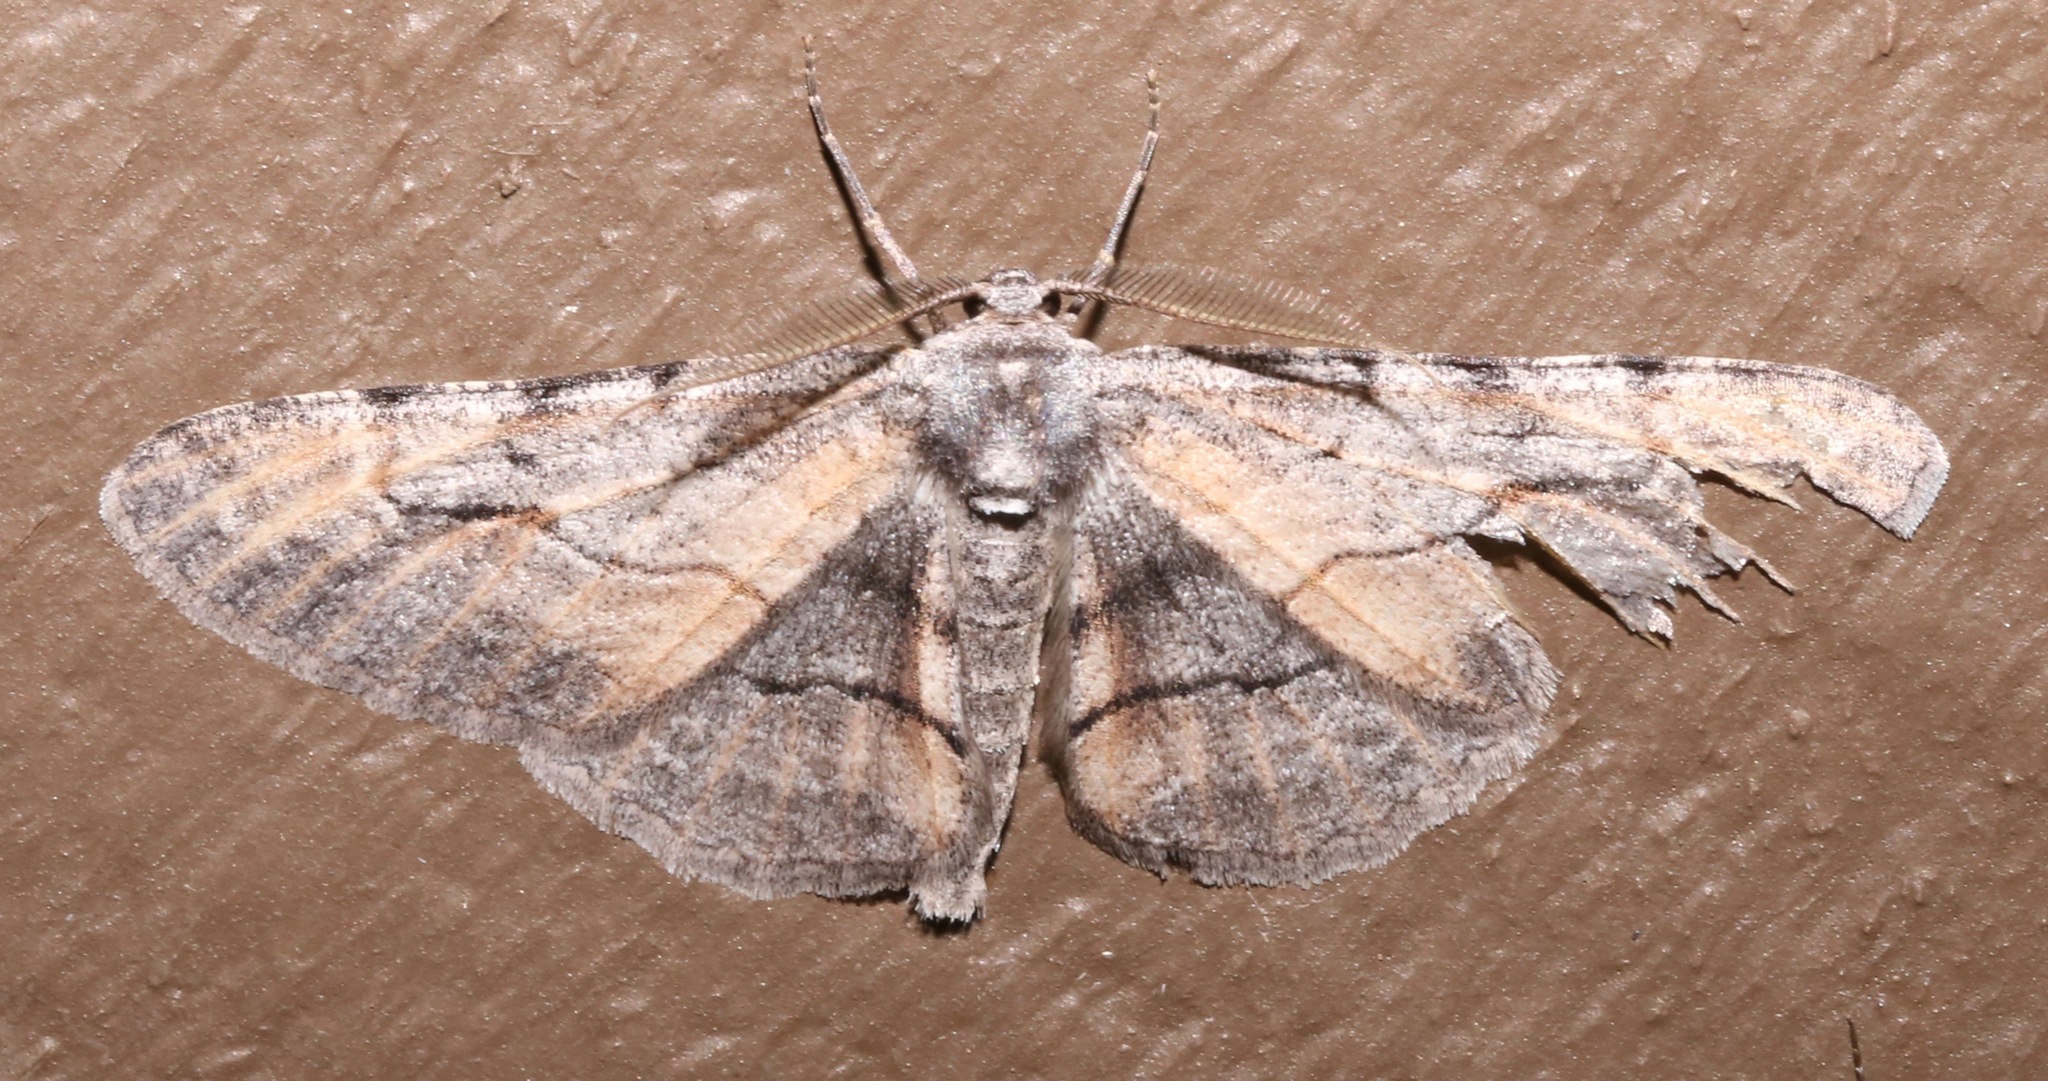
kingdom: Animalia
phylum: Arthropoda
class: Insecta
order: Lepidoptera
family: Geometridae
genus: Stenoporpia
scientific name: Stenoporpia mcdunnoughi
